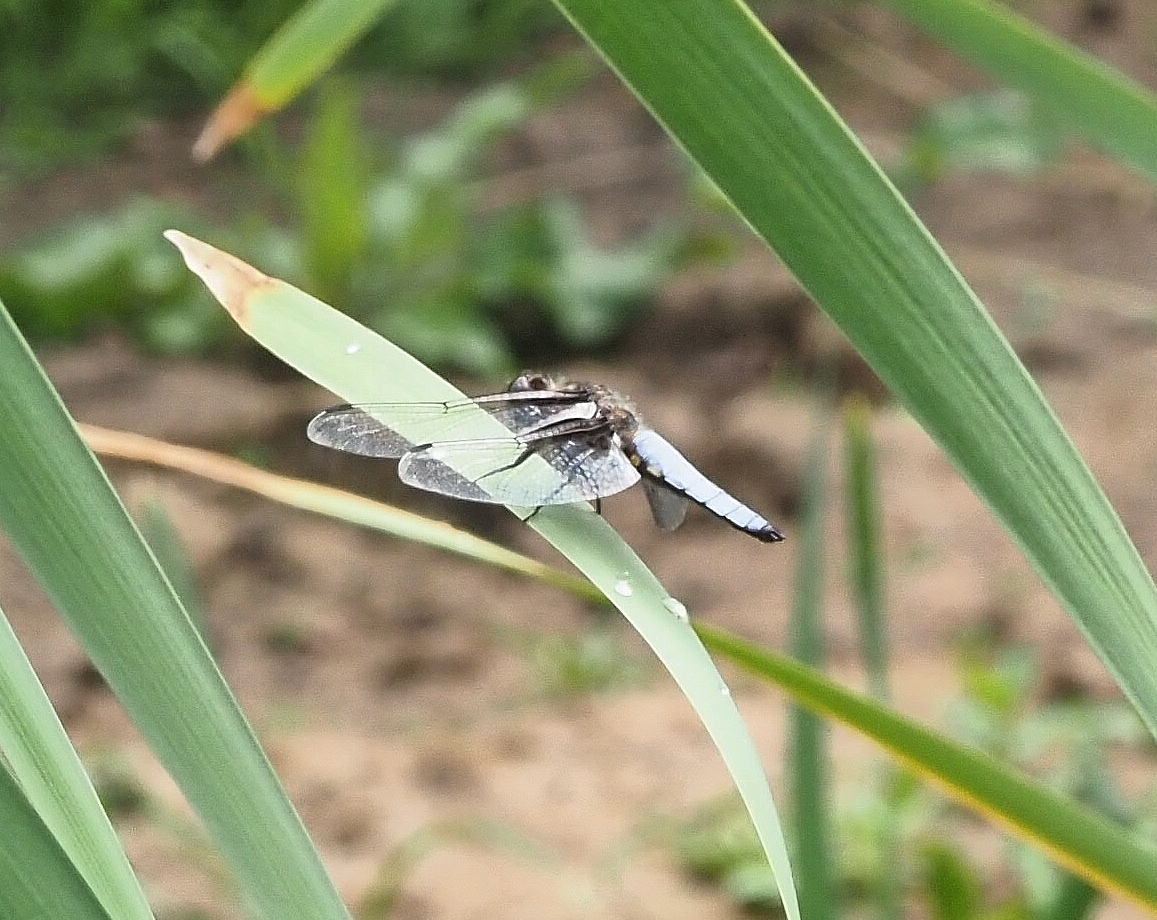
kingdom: Animalia
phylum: Arthropoda
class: Insecta
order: Odonata
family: Libellulidae
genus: Libellula
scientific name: Libellula depressa
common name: Broad-bodied chaser
